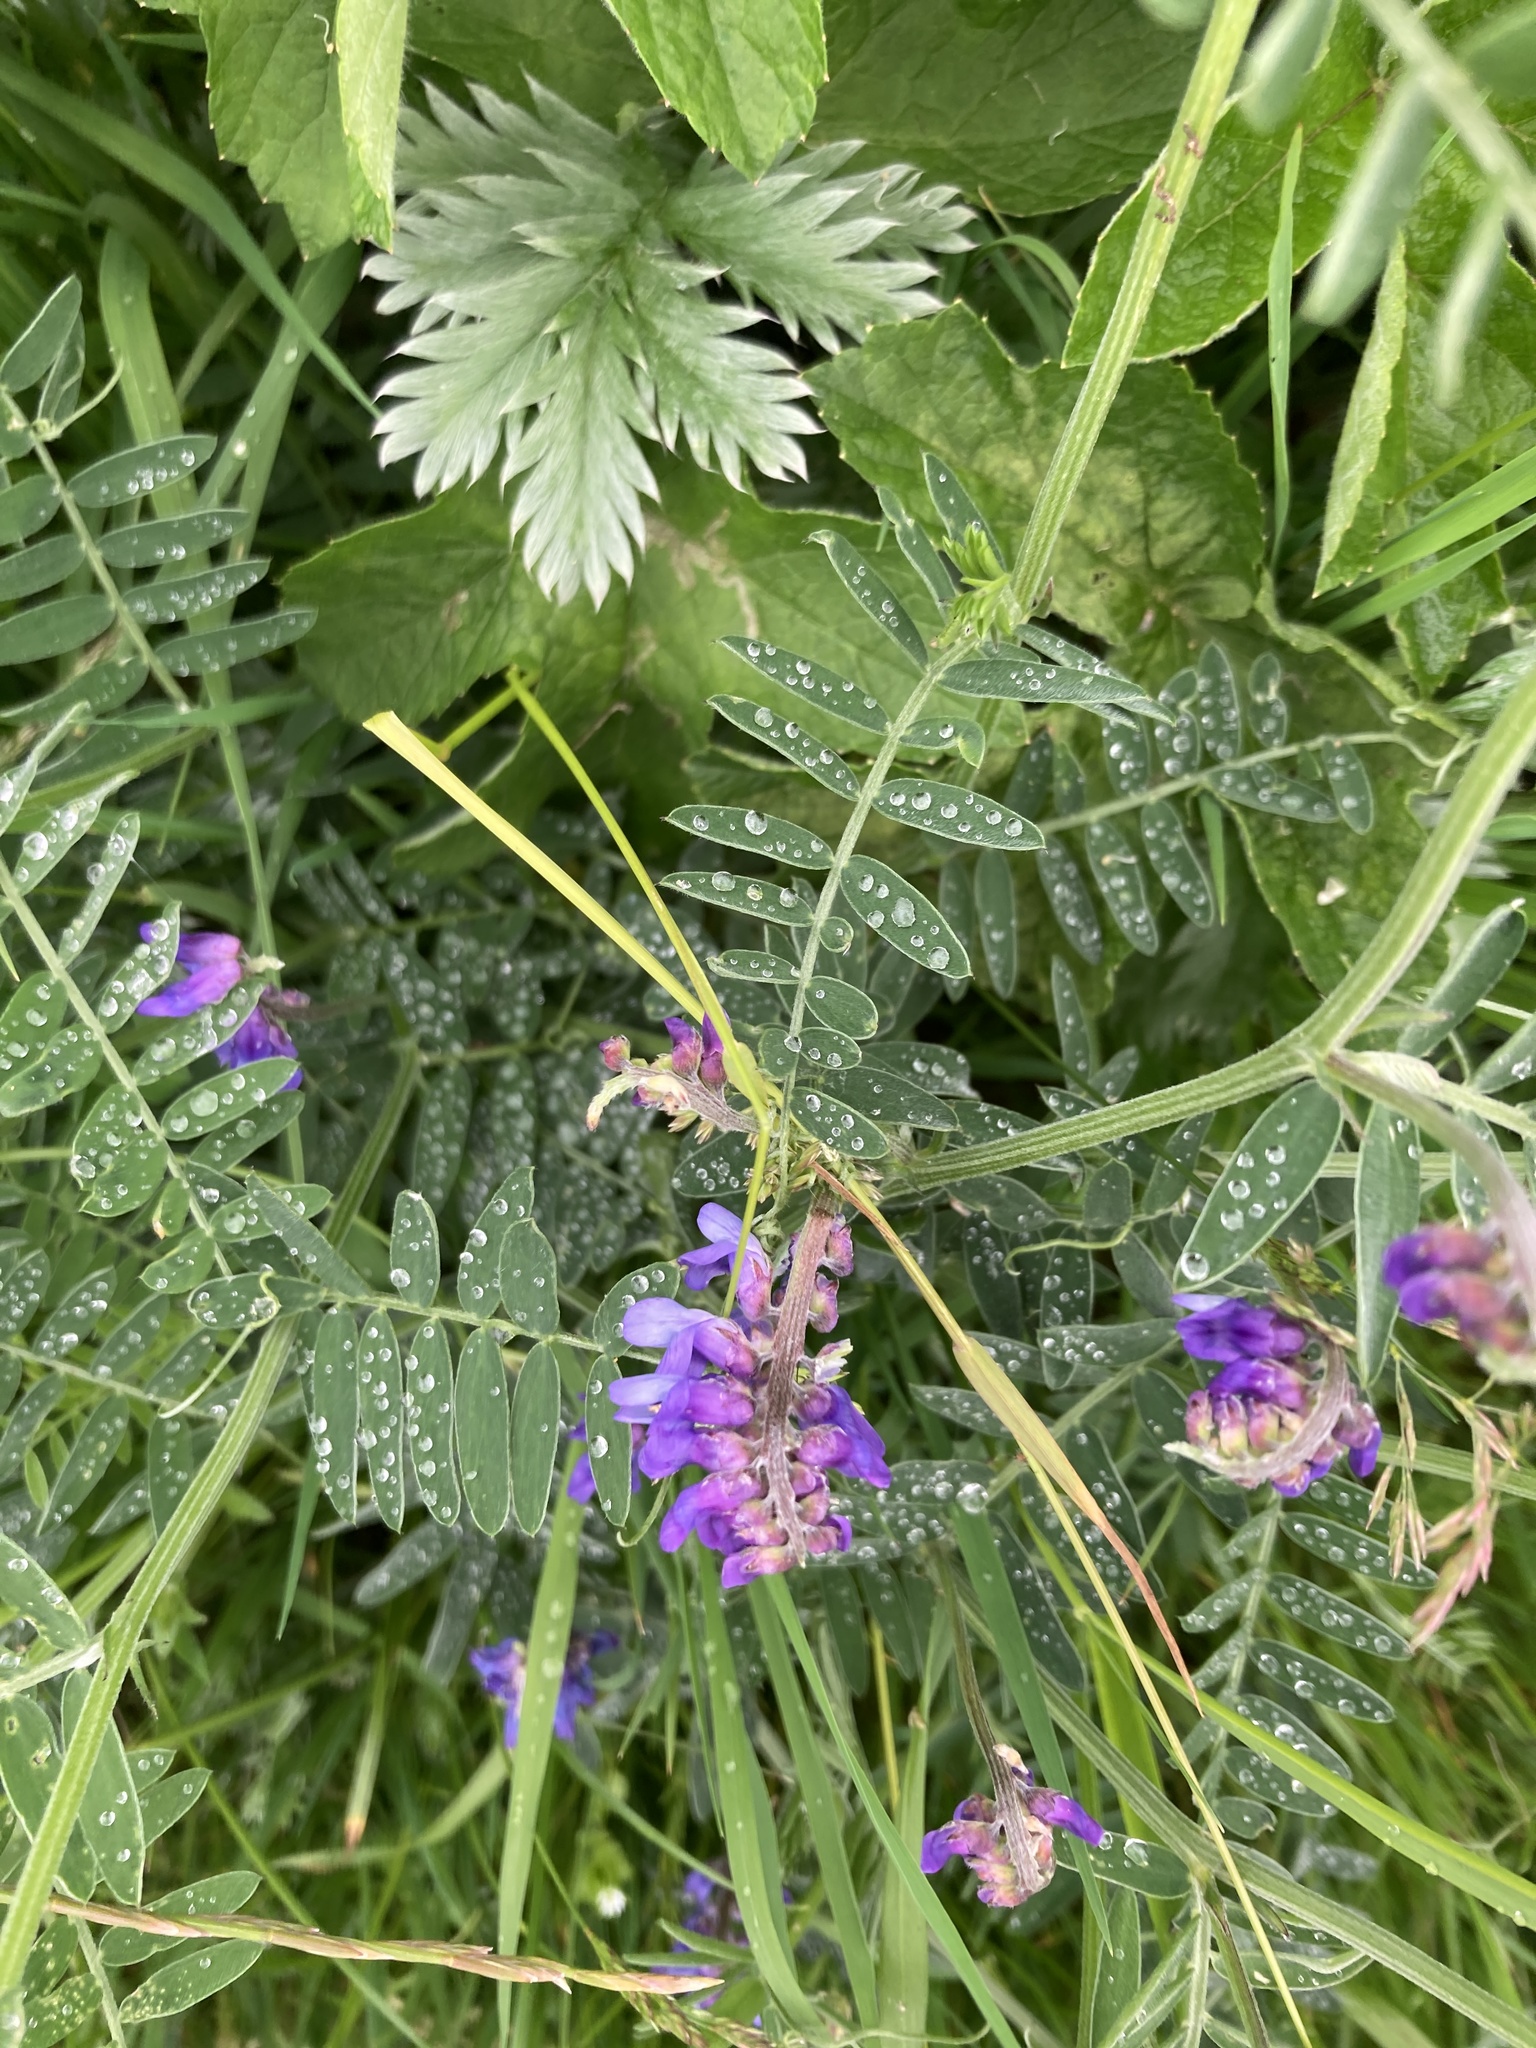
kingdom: Plantae
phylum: Tracheophyta
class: Magnoliopsida
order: Fabales
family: Fabaceae
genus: Vicia
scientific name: Vicia cracca
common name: Bird vetch
